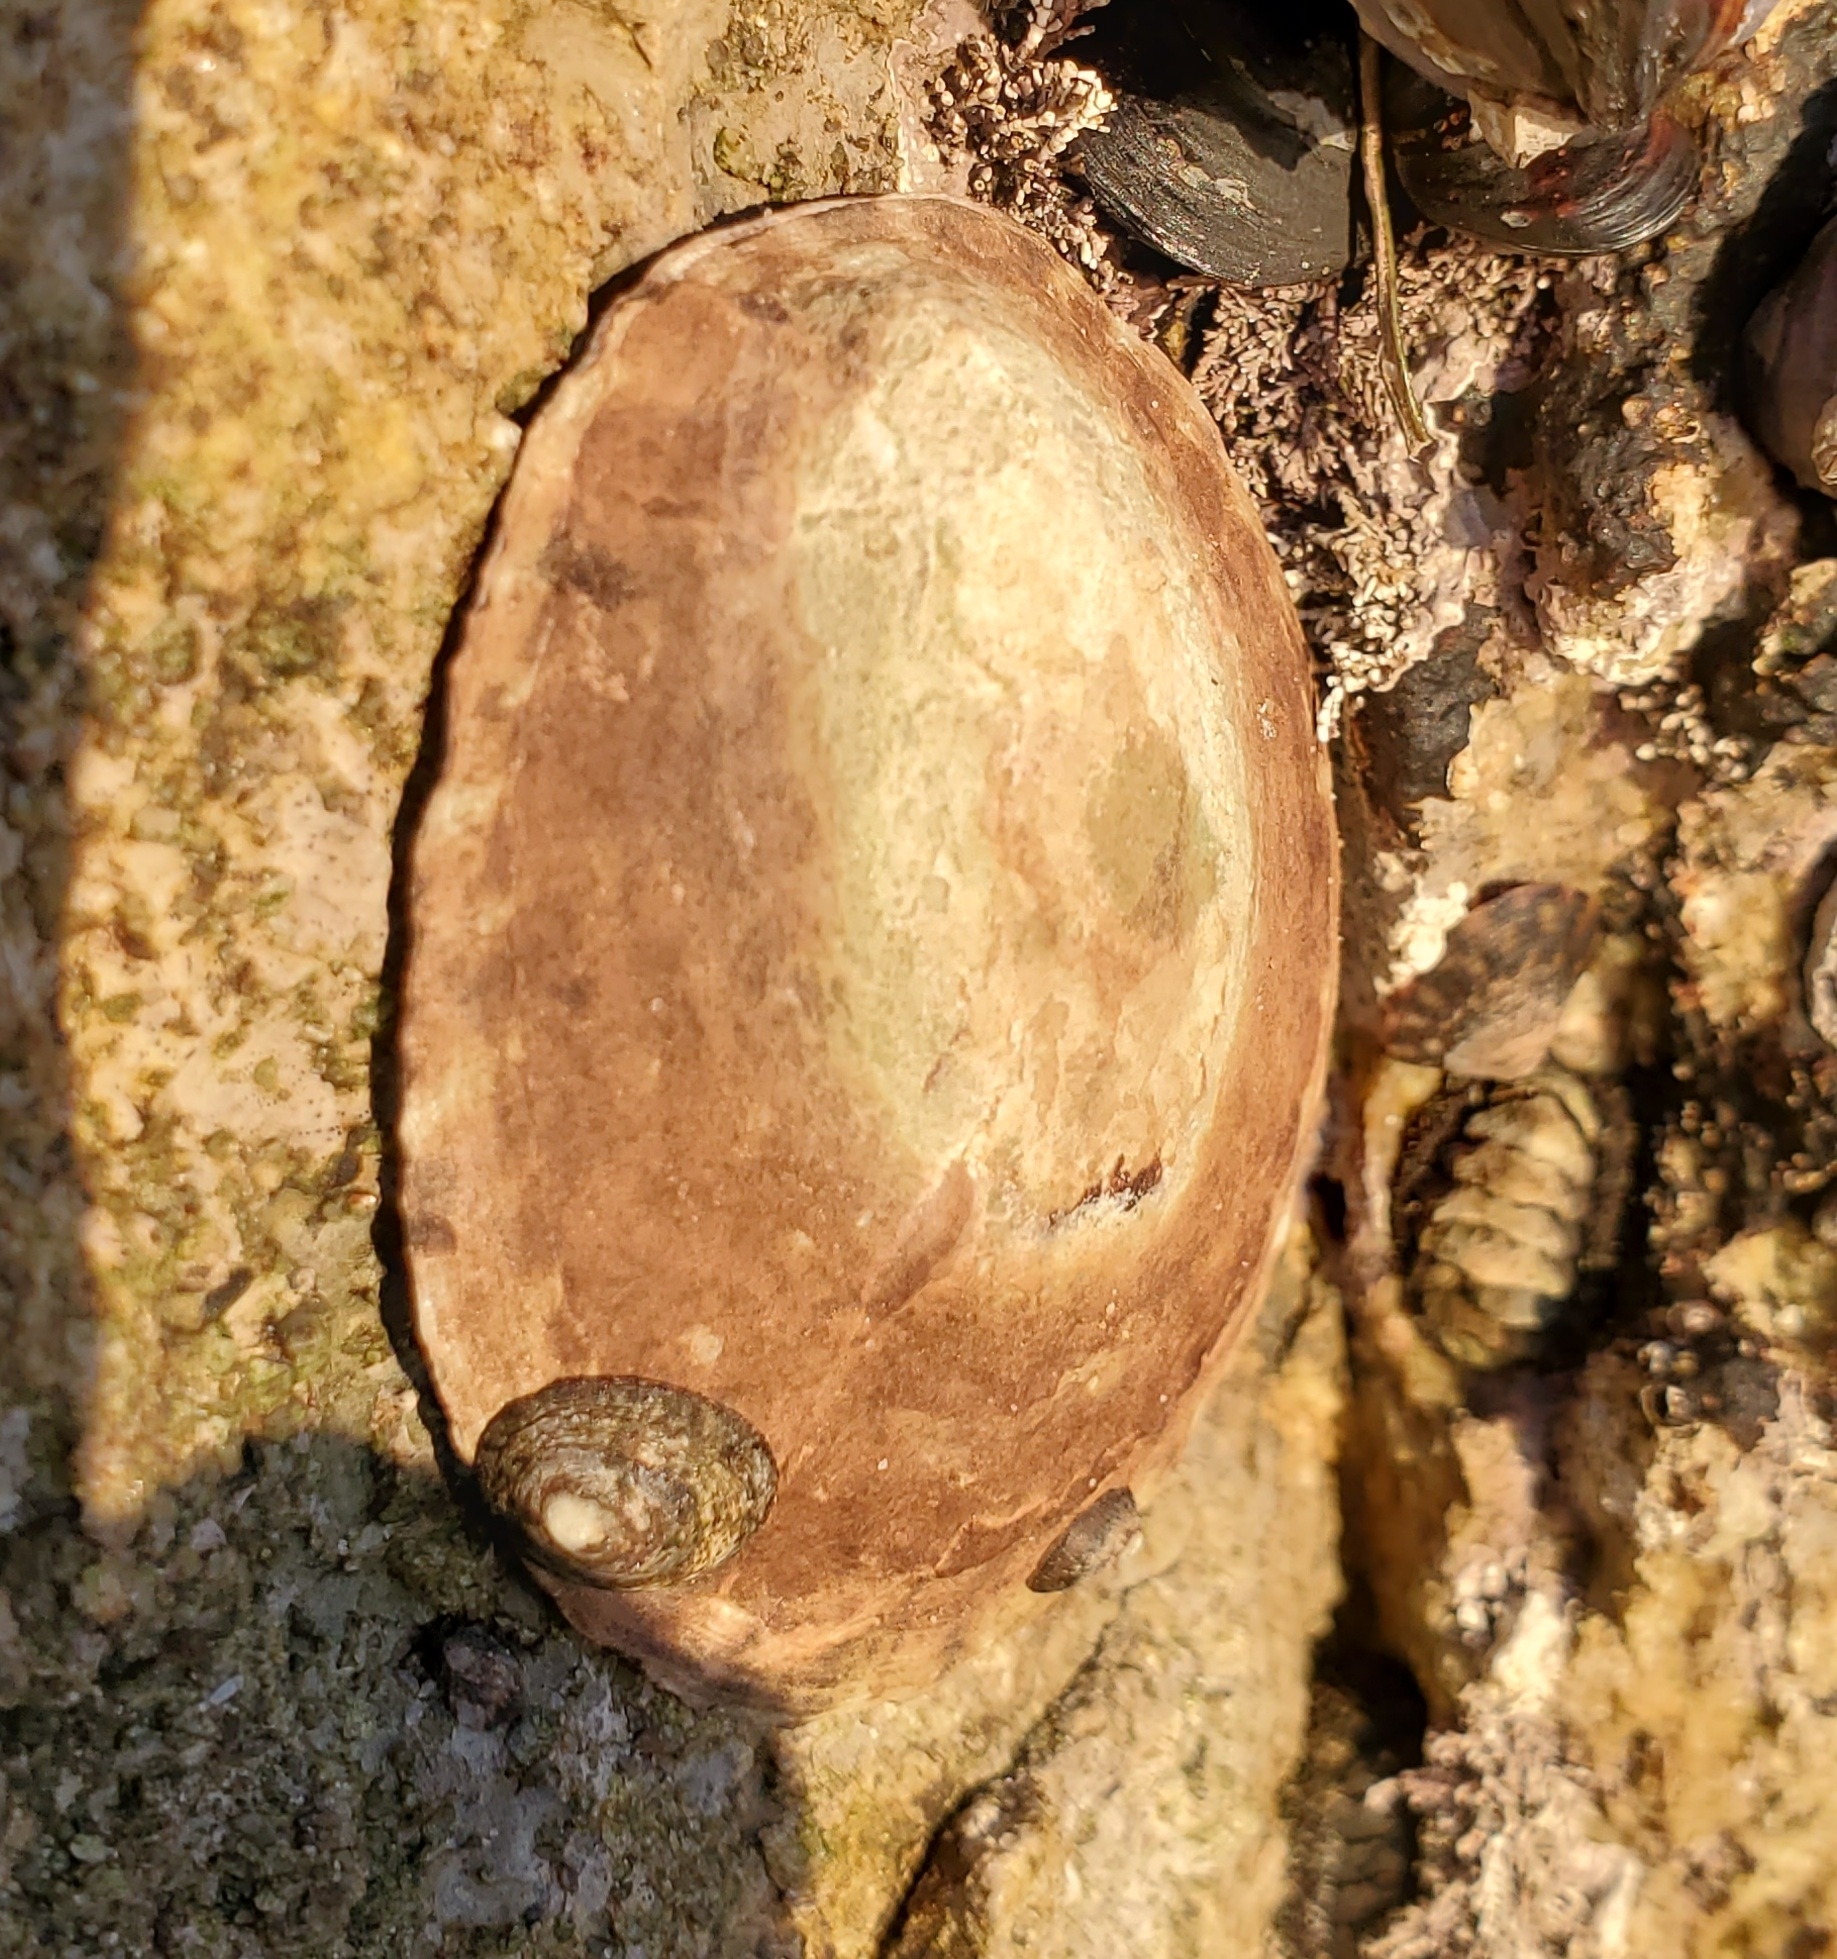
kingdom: Animalia
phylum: Mollusca
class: Gastropoda
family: Lottiidae
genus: Lottia
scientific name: Lottia gigantea
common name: Owl limpet
